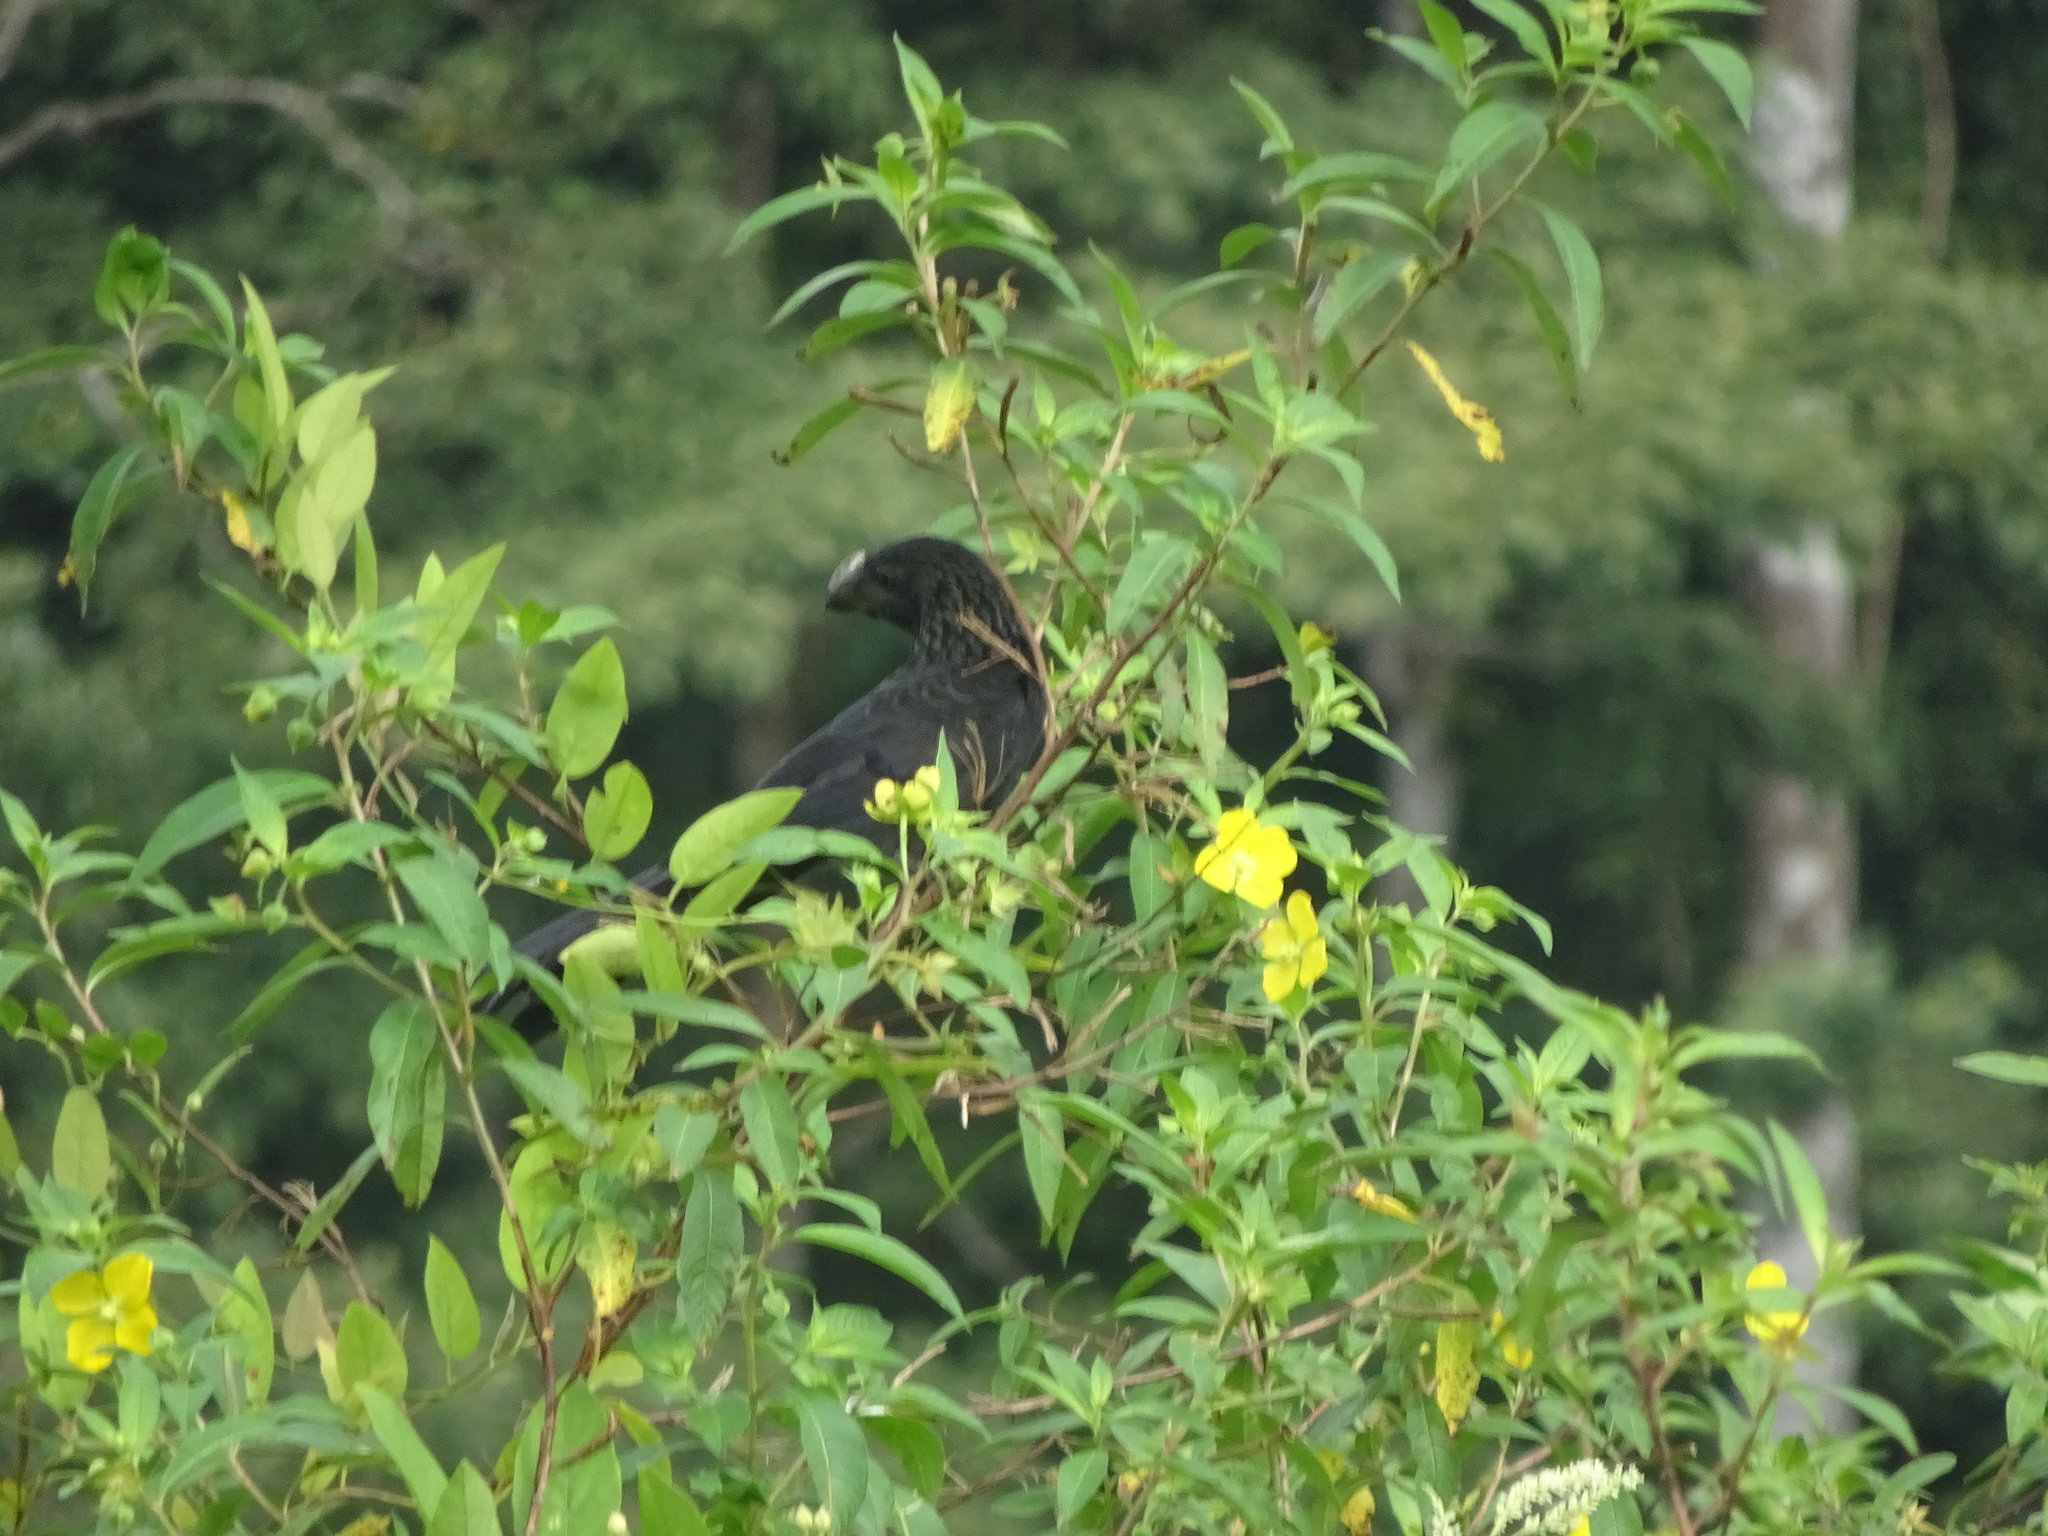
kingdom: Animalia
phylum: Chordata
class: Aves
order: Cuculiformes
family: Cuculidae
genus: Crotophaga
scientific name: Crotophaga ani
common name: Smooth-billed ani
